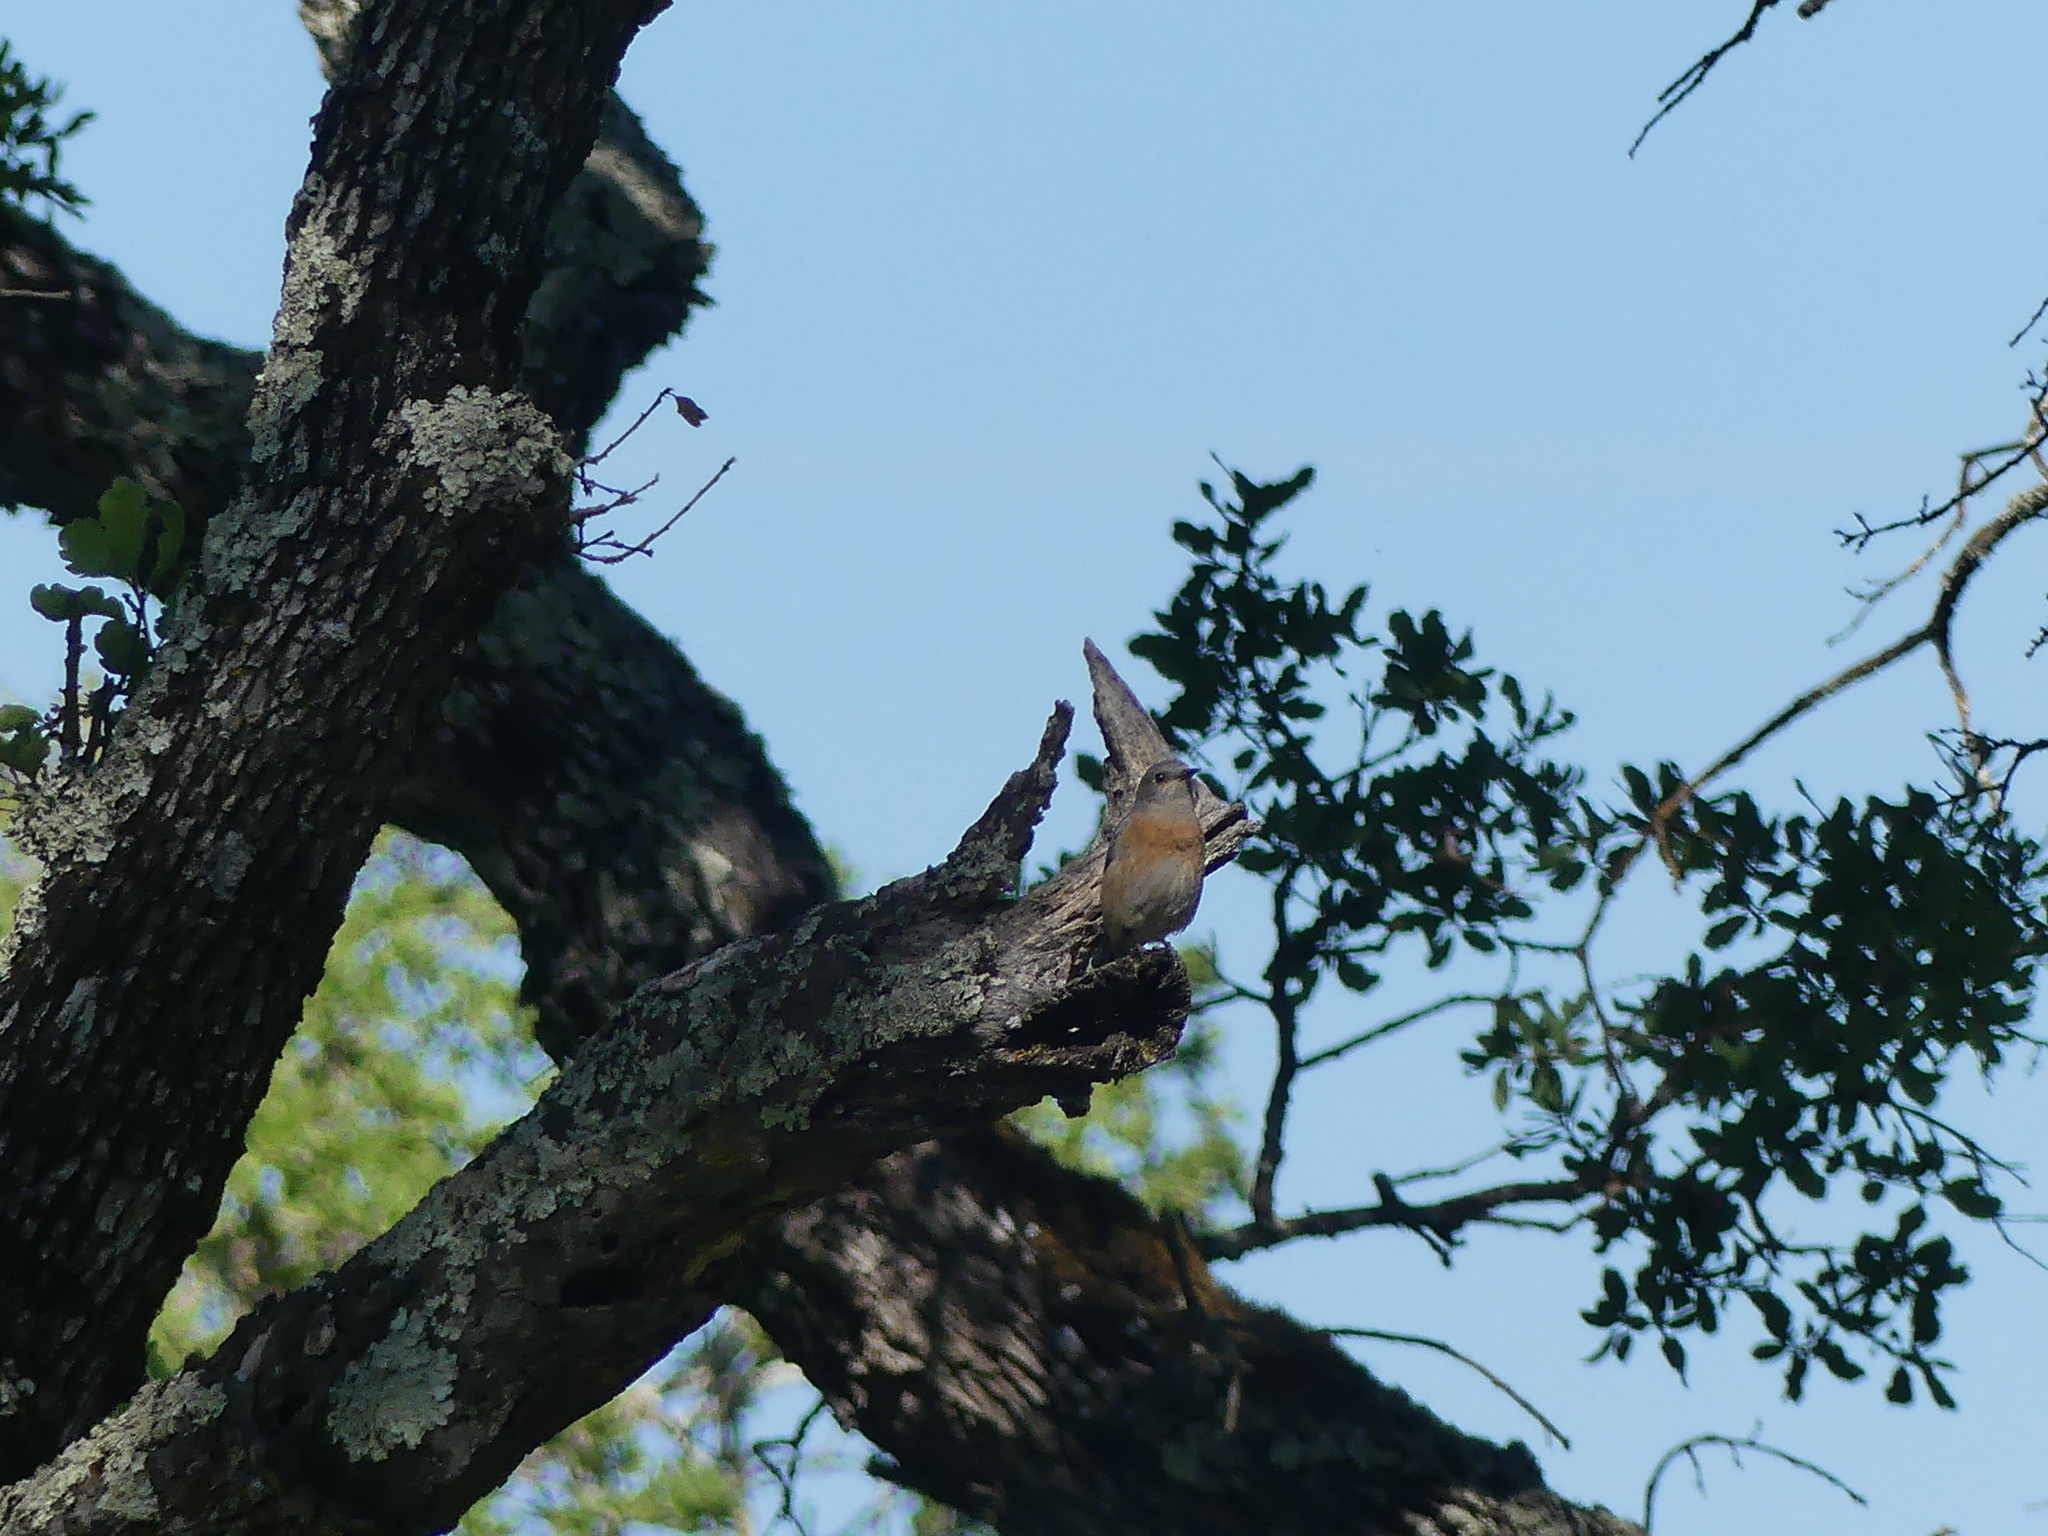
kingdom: Animalia
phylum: Chordata
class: Aves
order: Passeriformes
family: Turdidae
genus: Sialia
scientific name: Sialia mexicana
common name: Western bluebird
